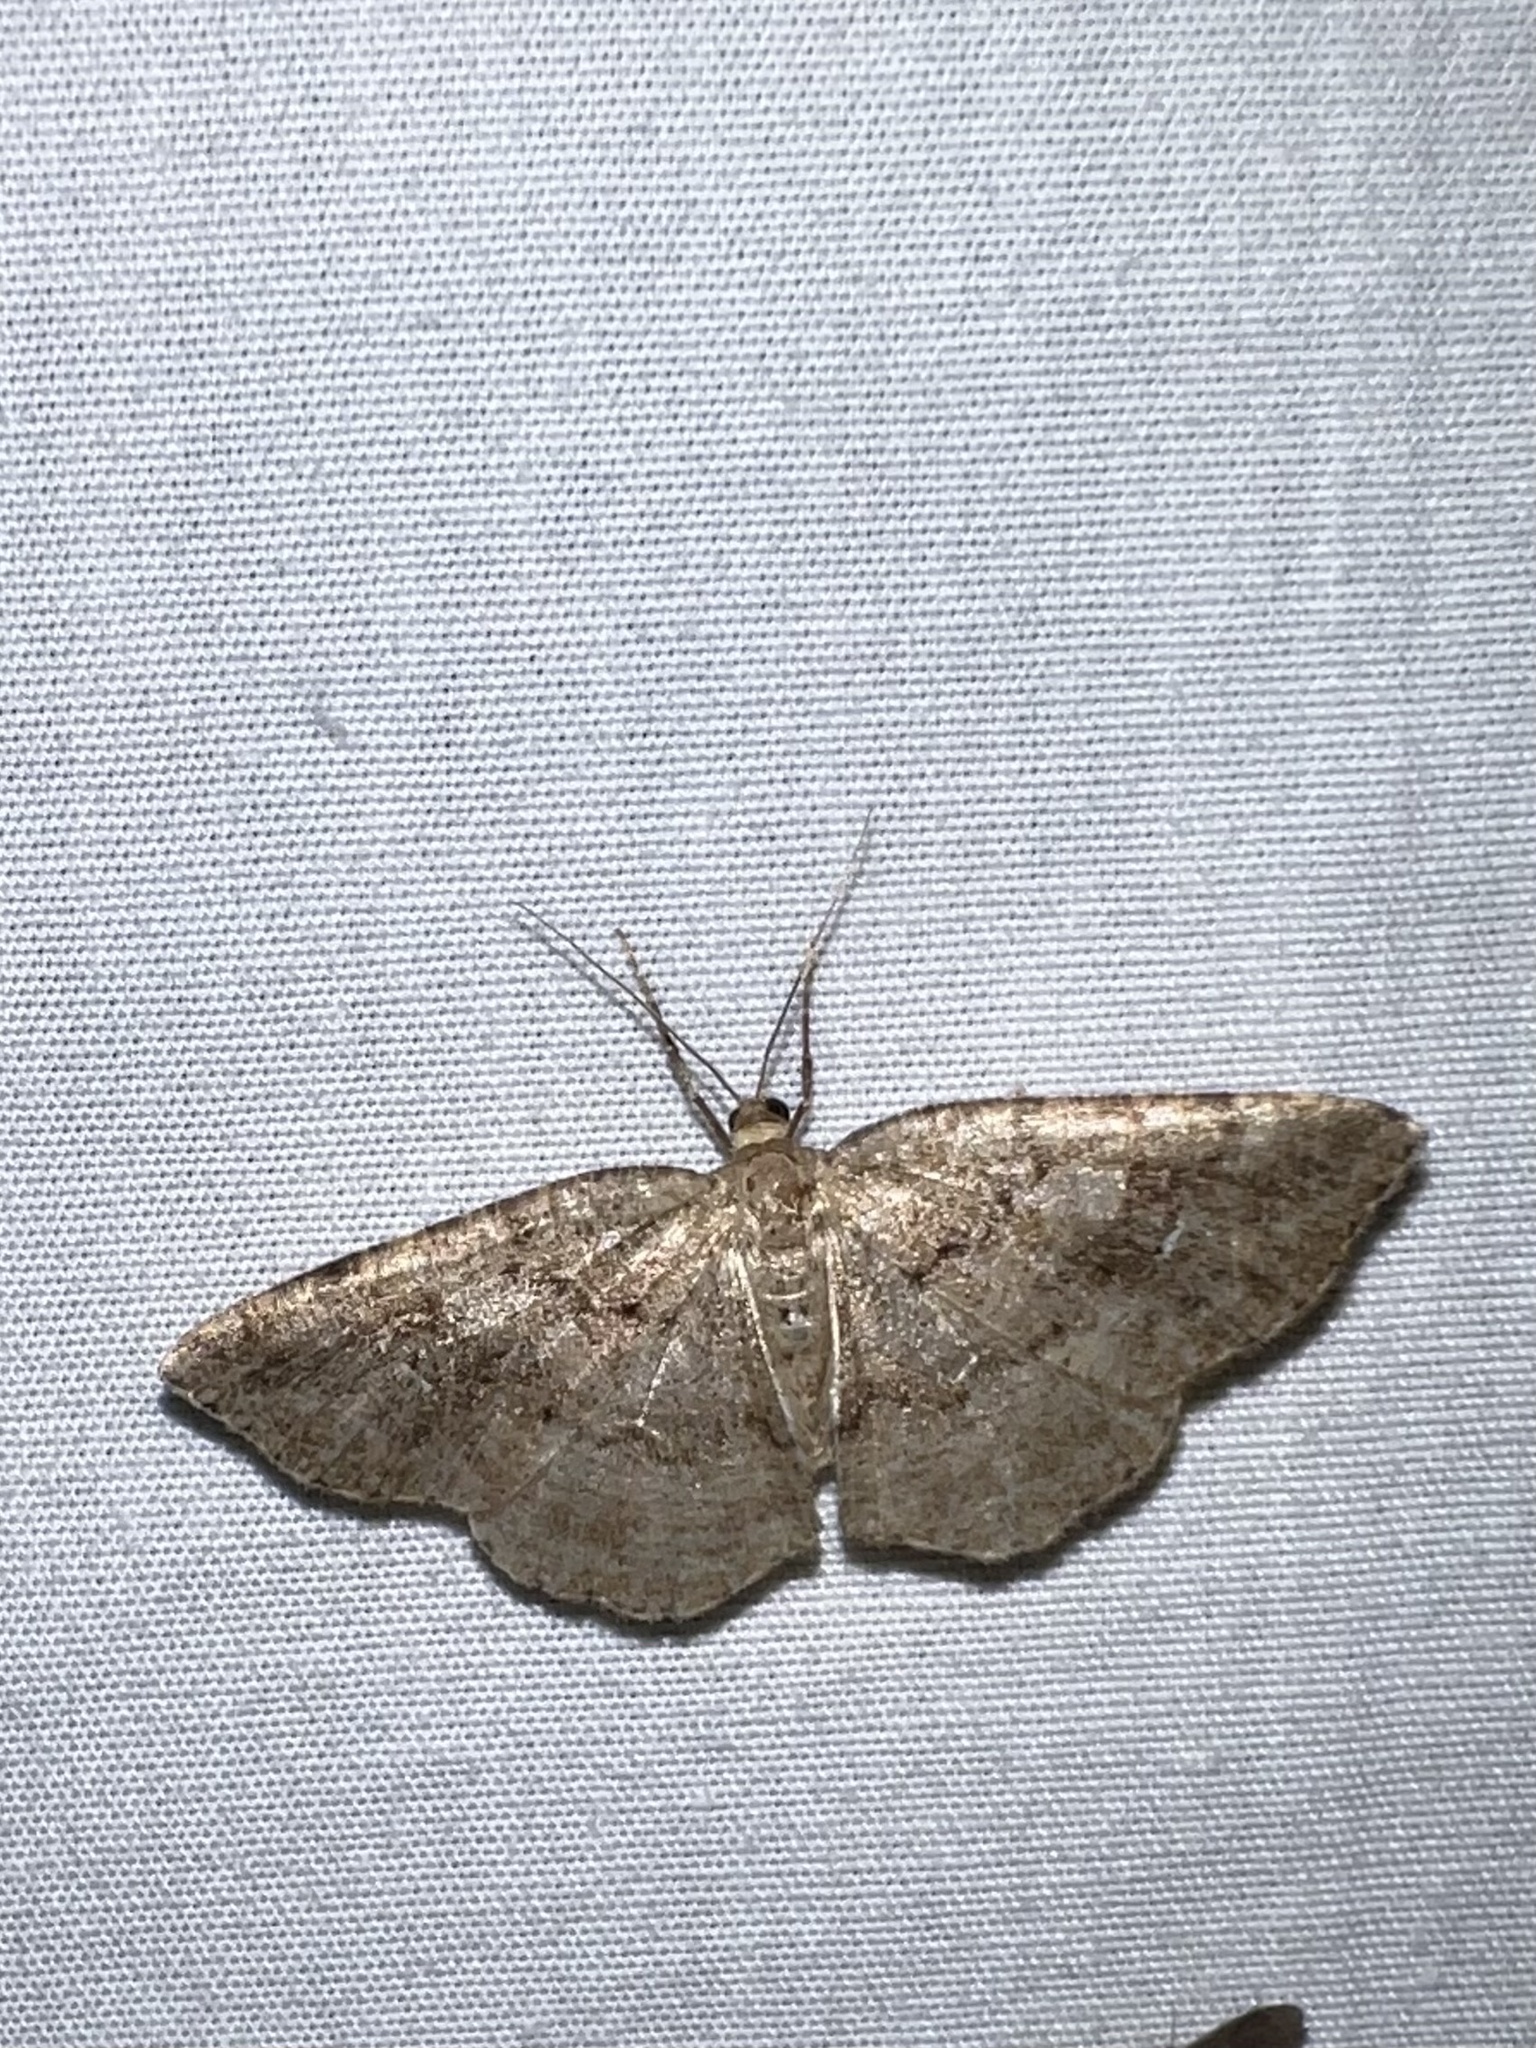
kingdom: Animalia
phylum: Arthropoda
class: Insecta
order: Lepidoptera
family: Geometridae
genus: Homochlodes
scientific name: Homochlodes fritillaria
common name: Pale homochlodes
